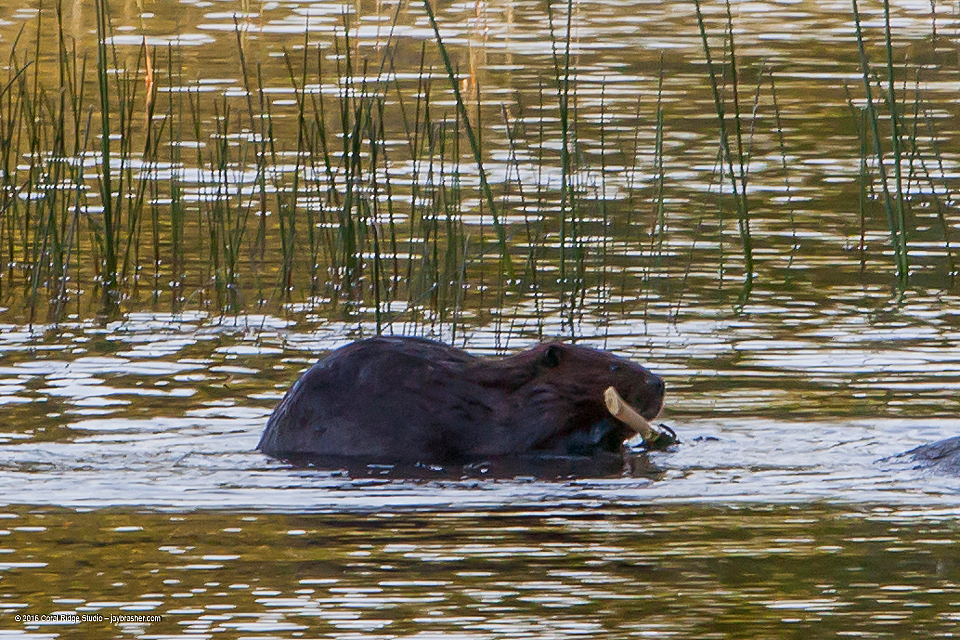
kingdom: Animalia
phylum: Chordata
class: Mammalia
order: Rodentia
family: Castoridae
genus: Castor
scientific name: Castor canadensis
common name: American beaver
